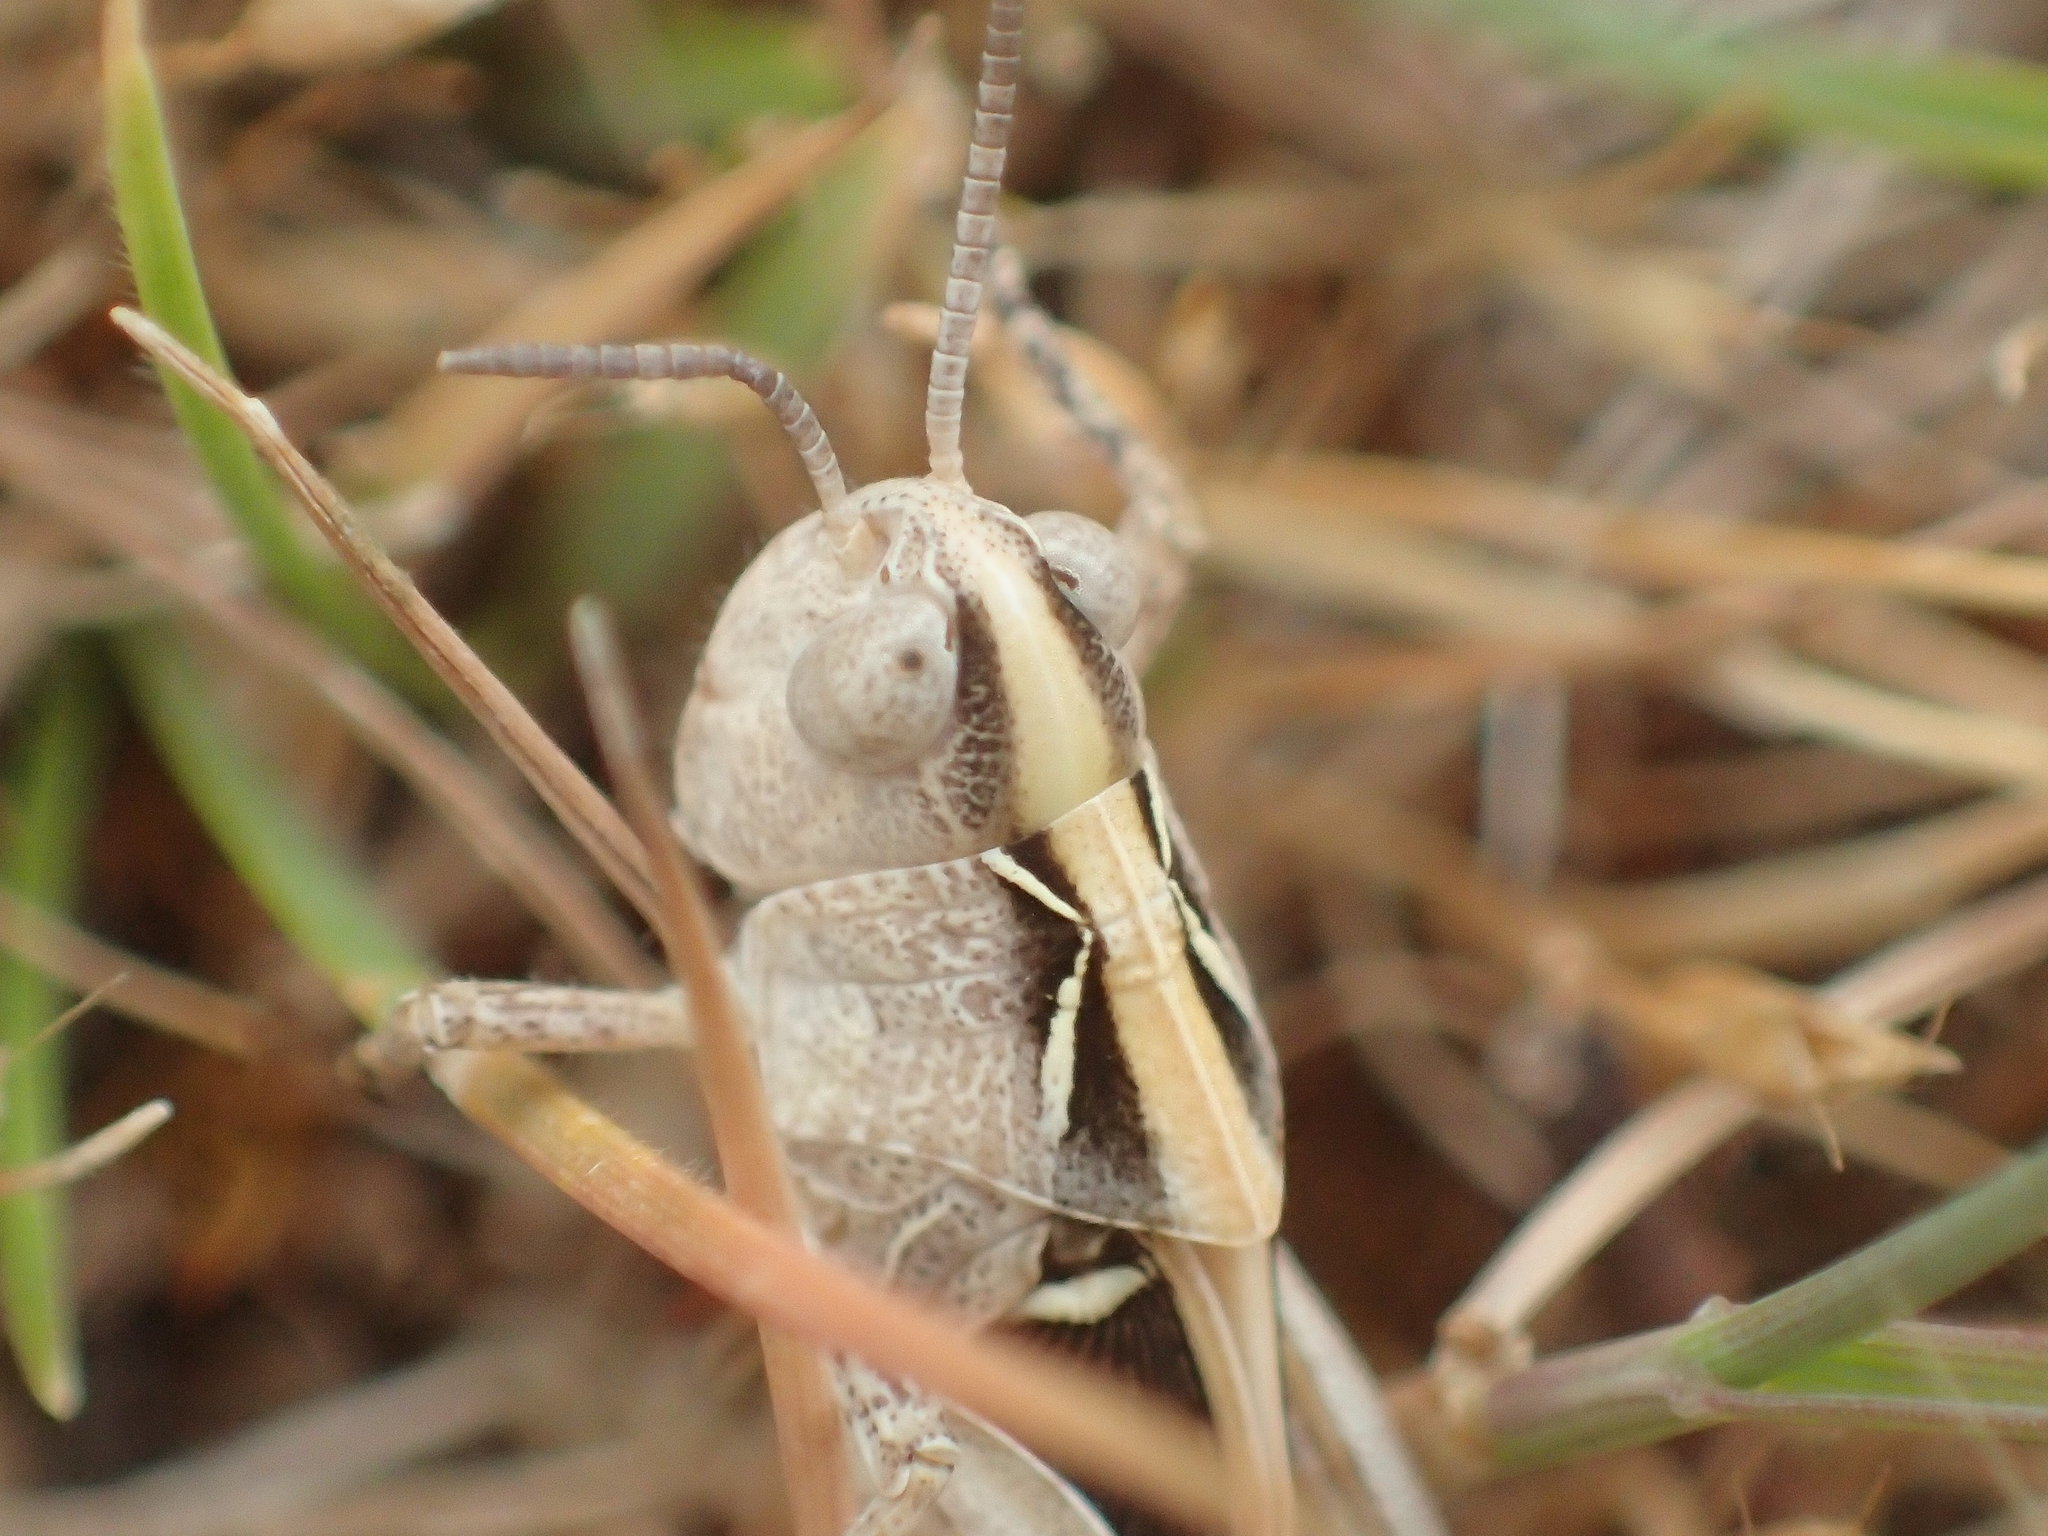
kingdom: Animalia
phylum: Arthropoda
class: Insecta
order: Orthoptera
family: Acrididae
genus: Austroicetes
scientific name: Austroicetes vulgaris
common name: Southeastern austroicetes
